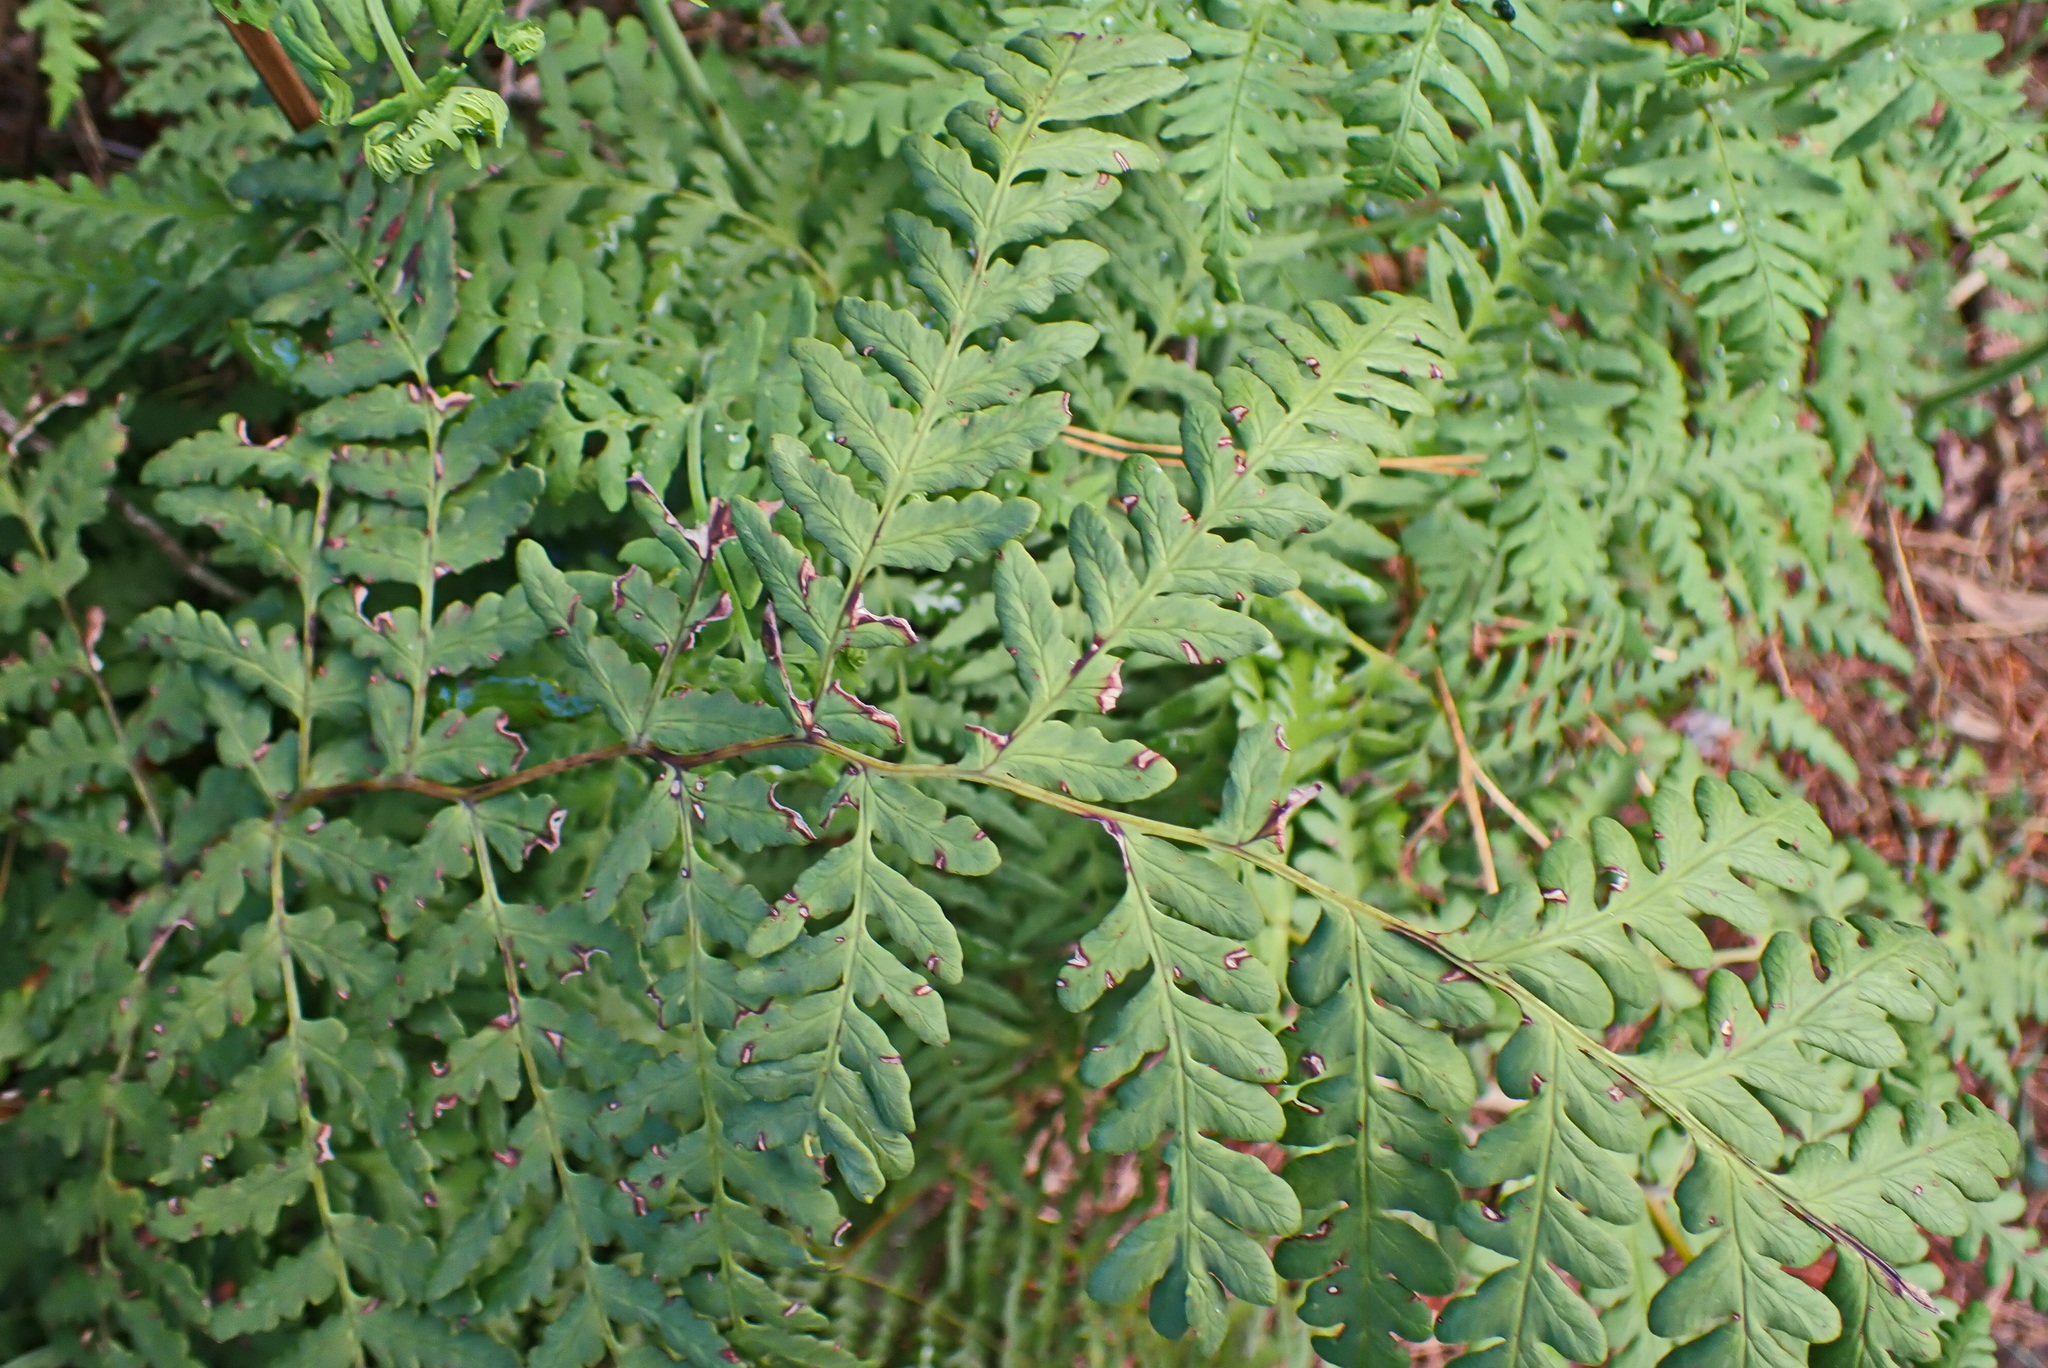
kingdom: Plantae
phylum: Tracheophyta
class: Polypodiopsida
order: Polypodiales
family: Dennstaedtiaceae
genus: Histiopteris
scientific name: Histiopteris incisa
